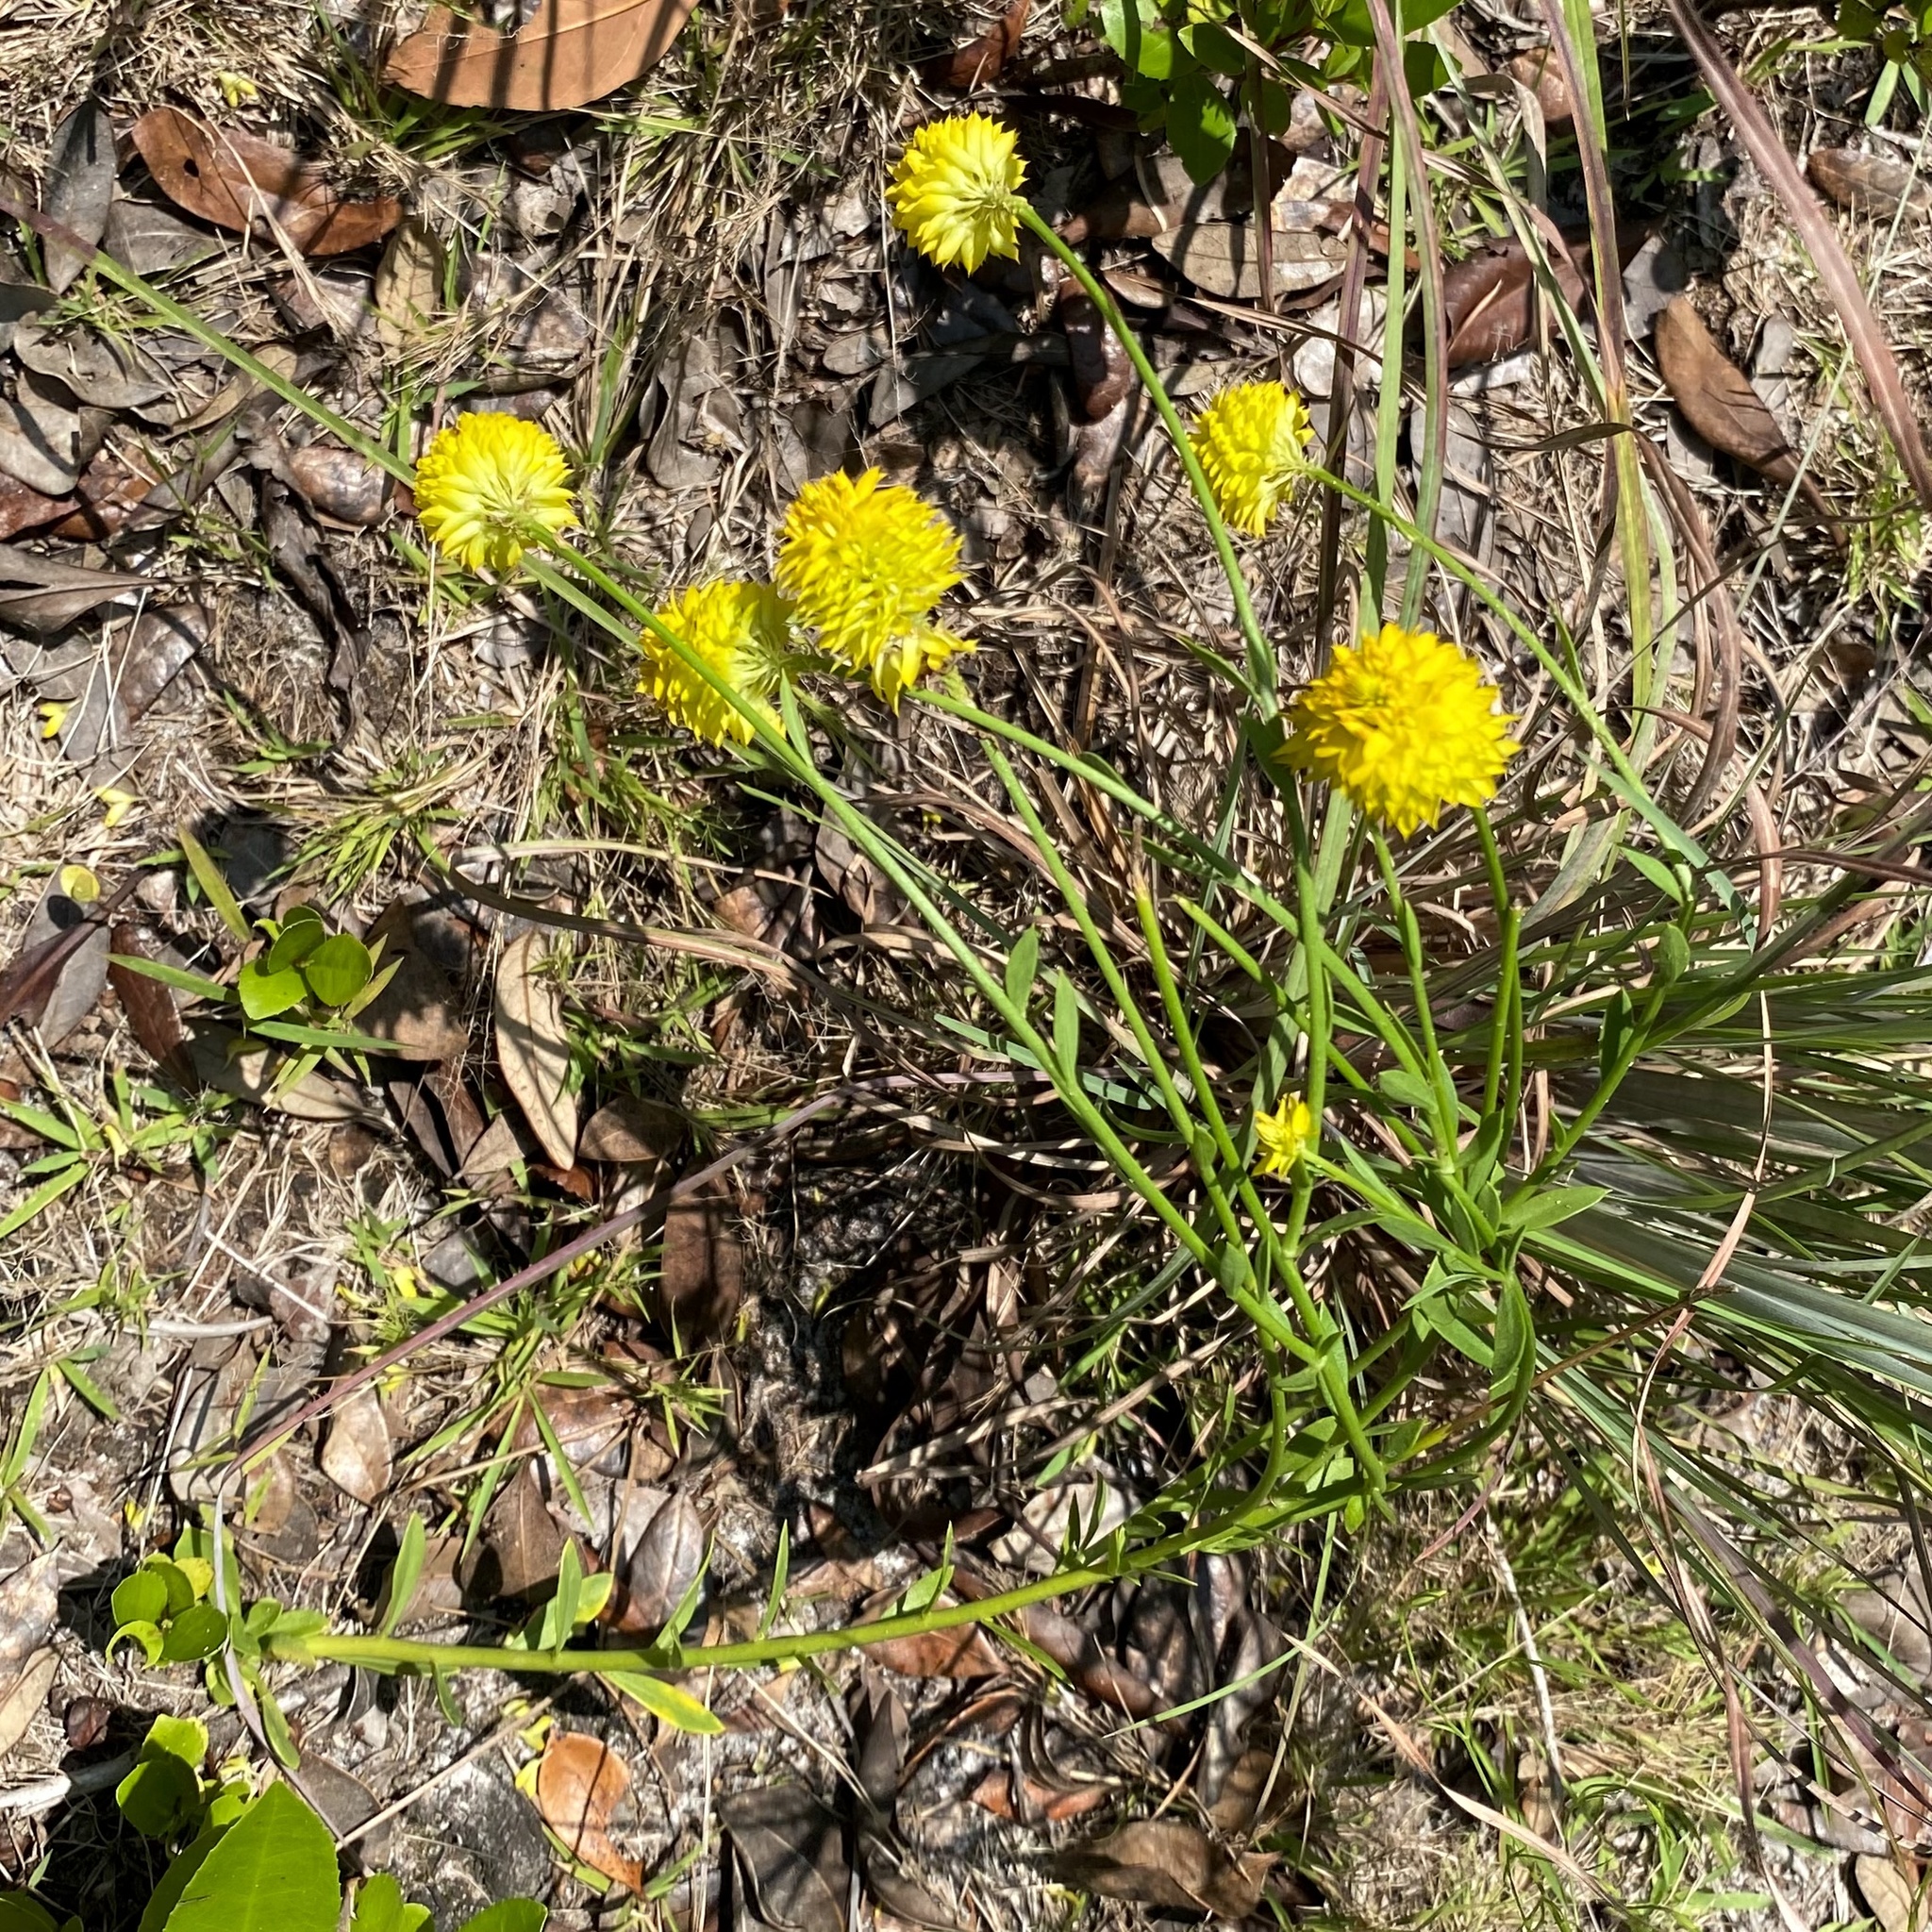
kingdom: Plantae
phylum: Tracheophyta
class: Magnoliopsida
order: Fabales
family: Polygalaceae
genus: Polygala
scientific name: Polygala rugelii
